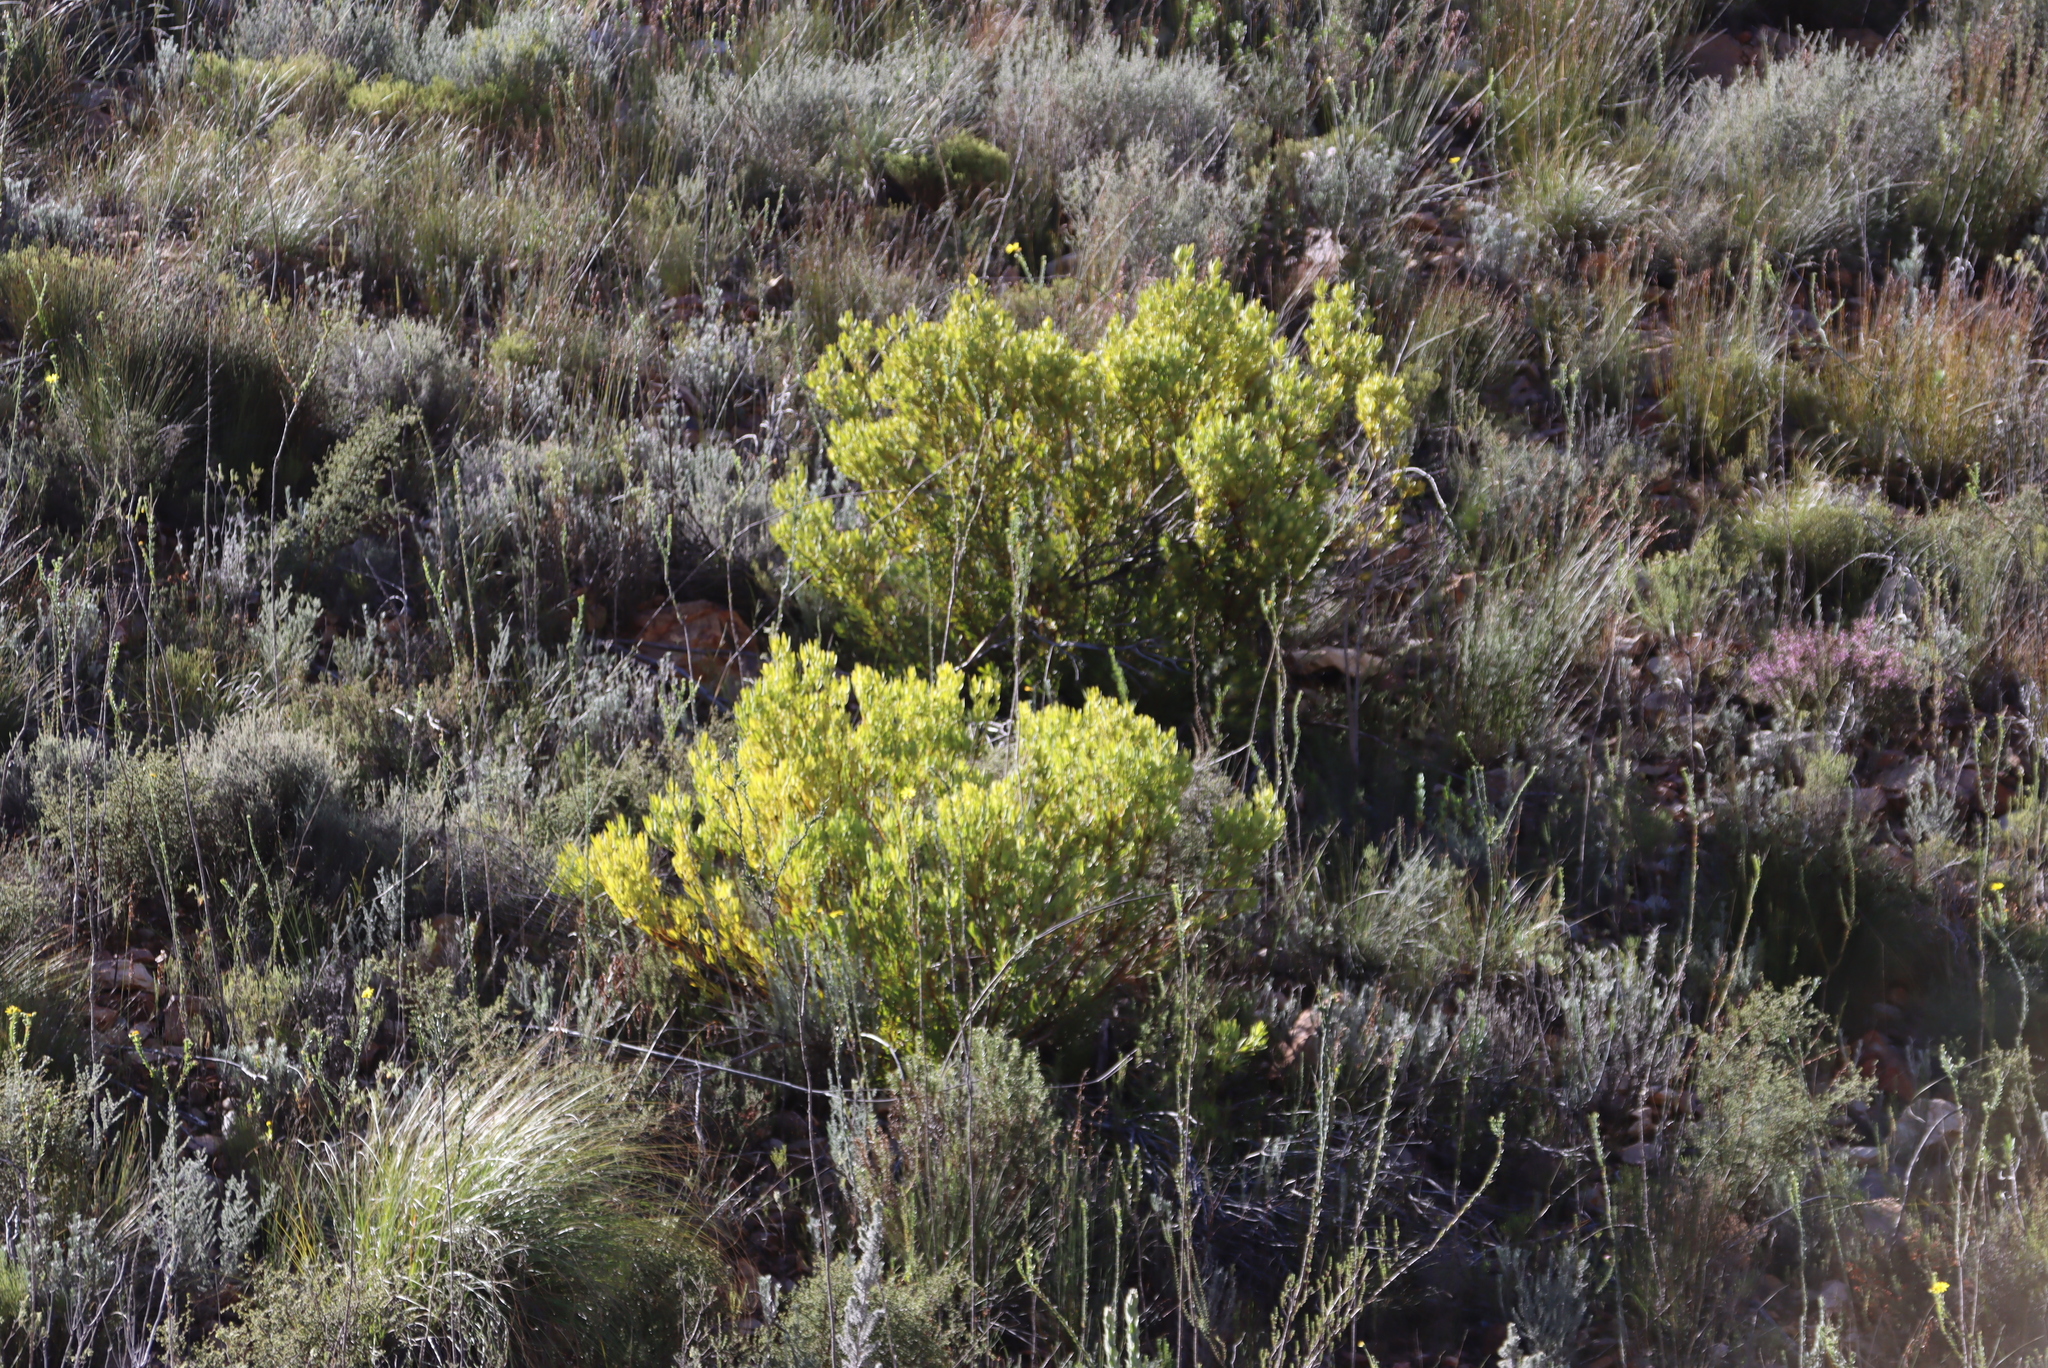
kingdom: Plantae
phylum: Tracheophyta
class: Magnoliopsida
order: Proteales
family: Proteaceae
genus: Leucadendron
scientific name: Leucadendron salignum
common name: Common sunshine conebush
